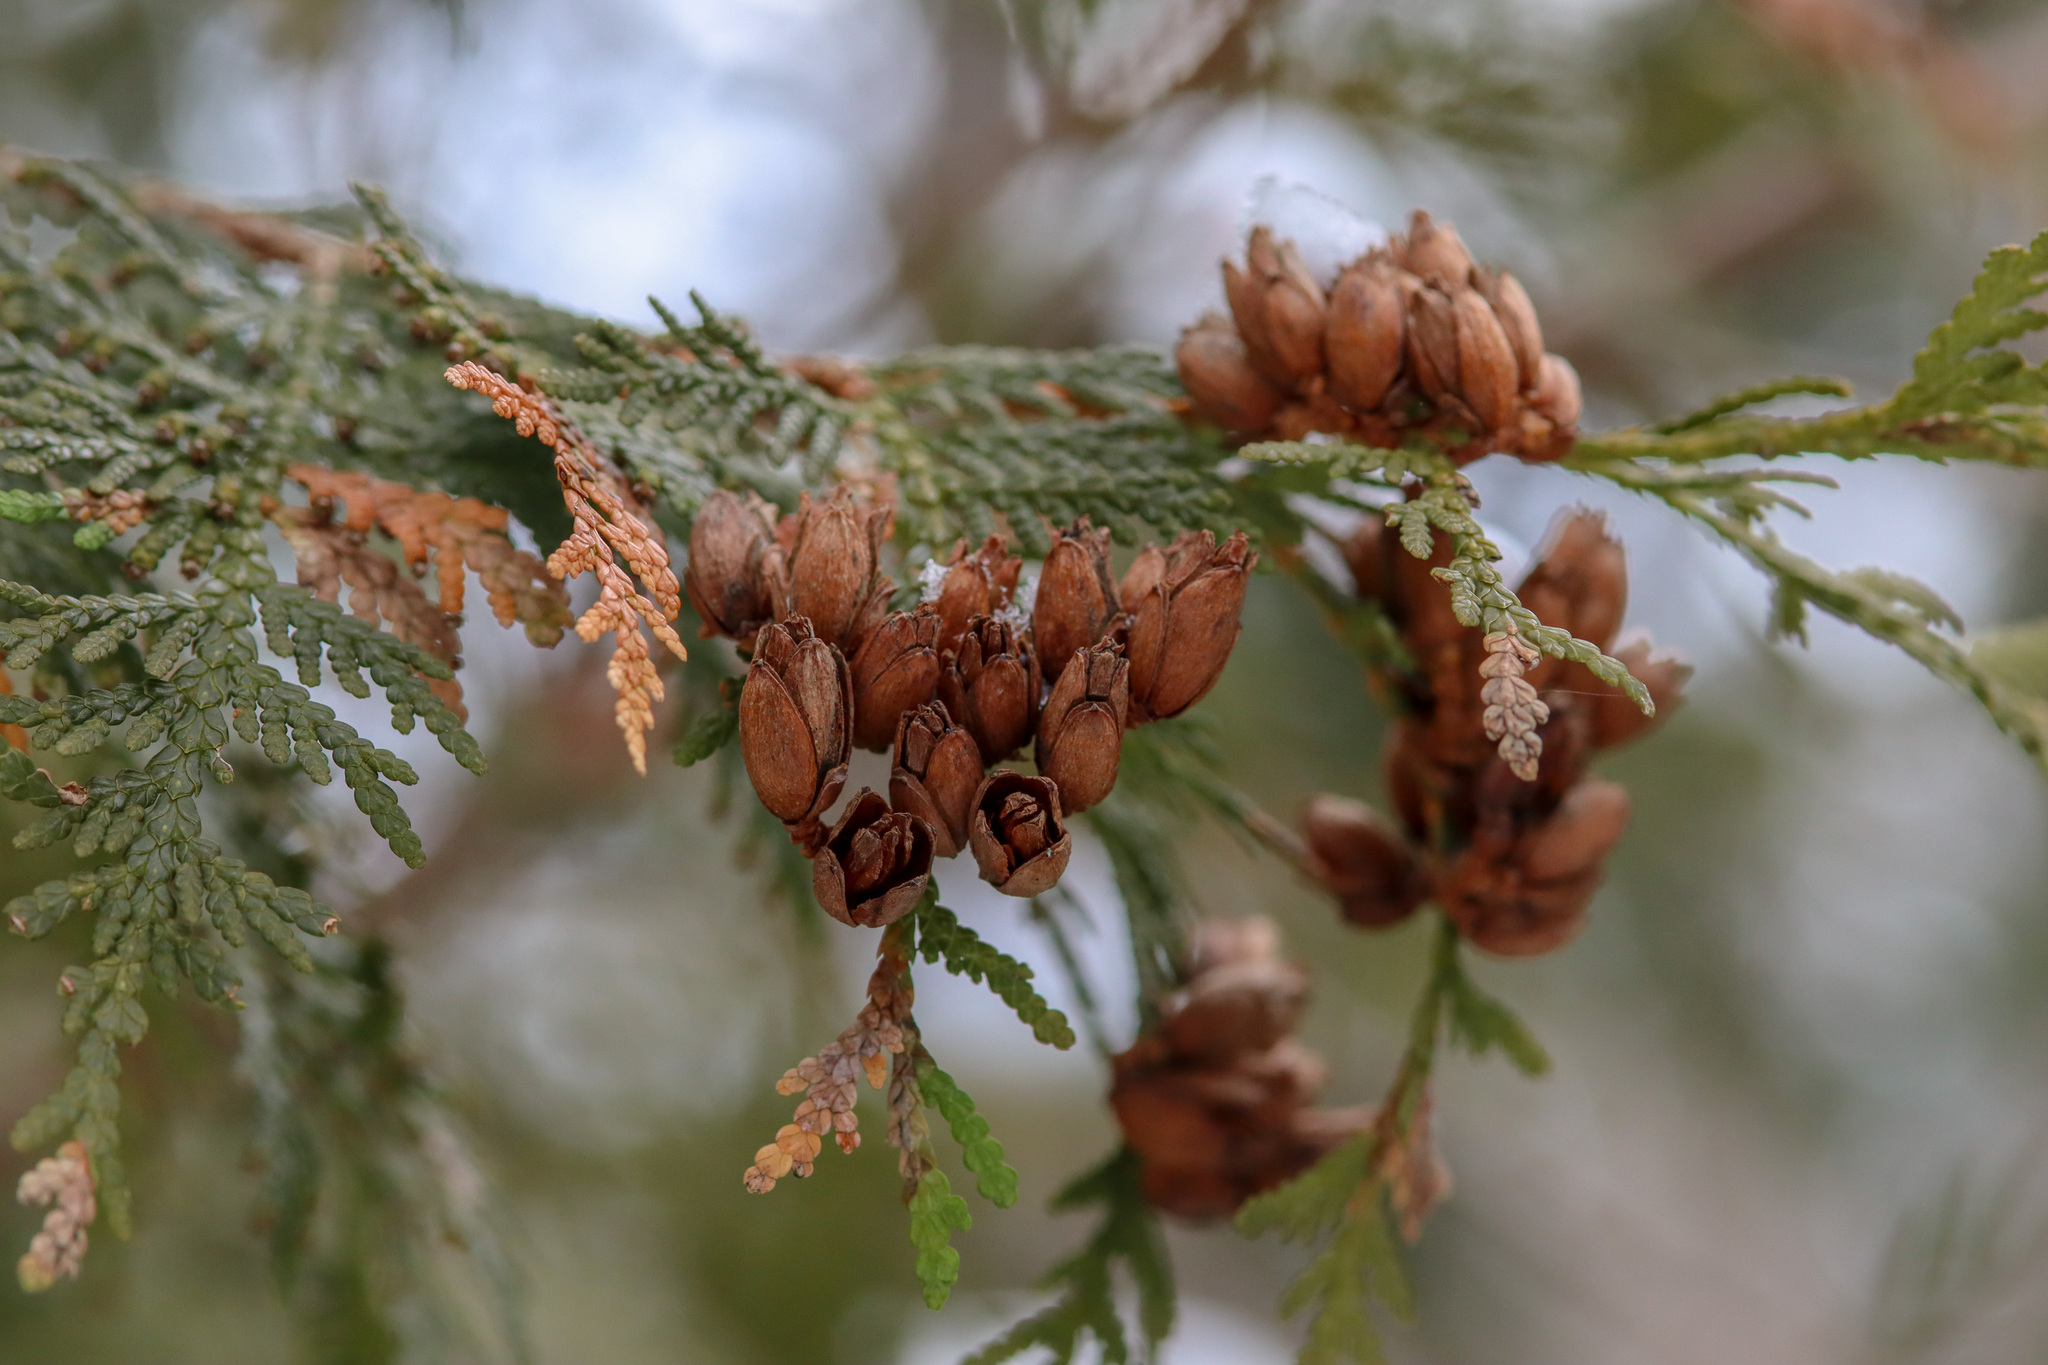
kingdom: Plantae
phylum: Tracheophyta
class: Pinopsida
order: Pinales
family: Cupressaceae
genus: Thuja
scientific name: Thuja occidentalis
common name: Northern white-cedar
